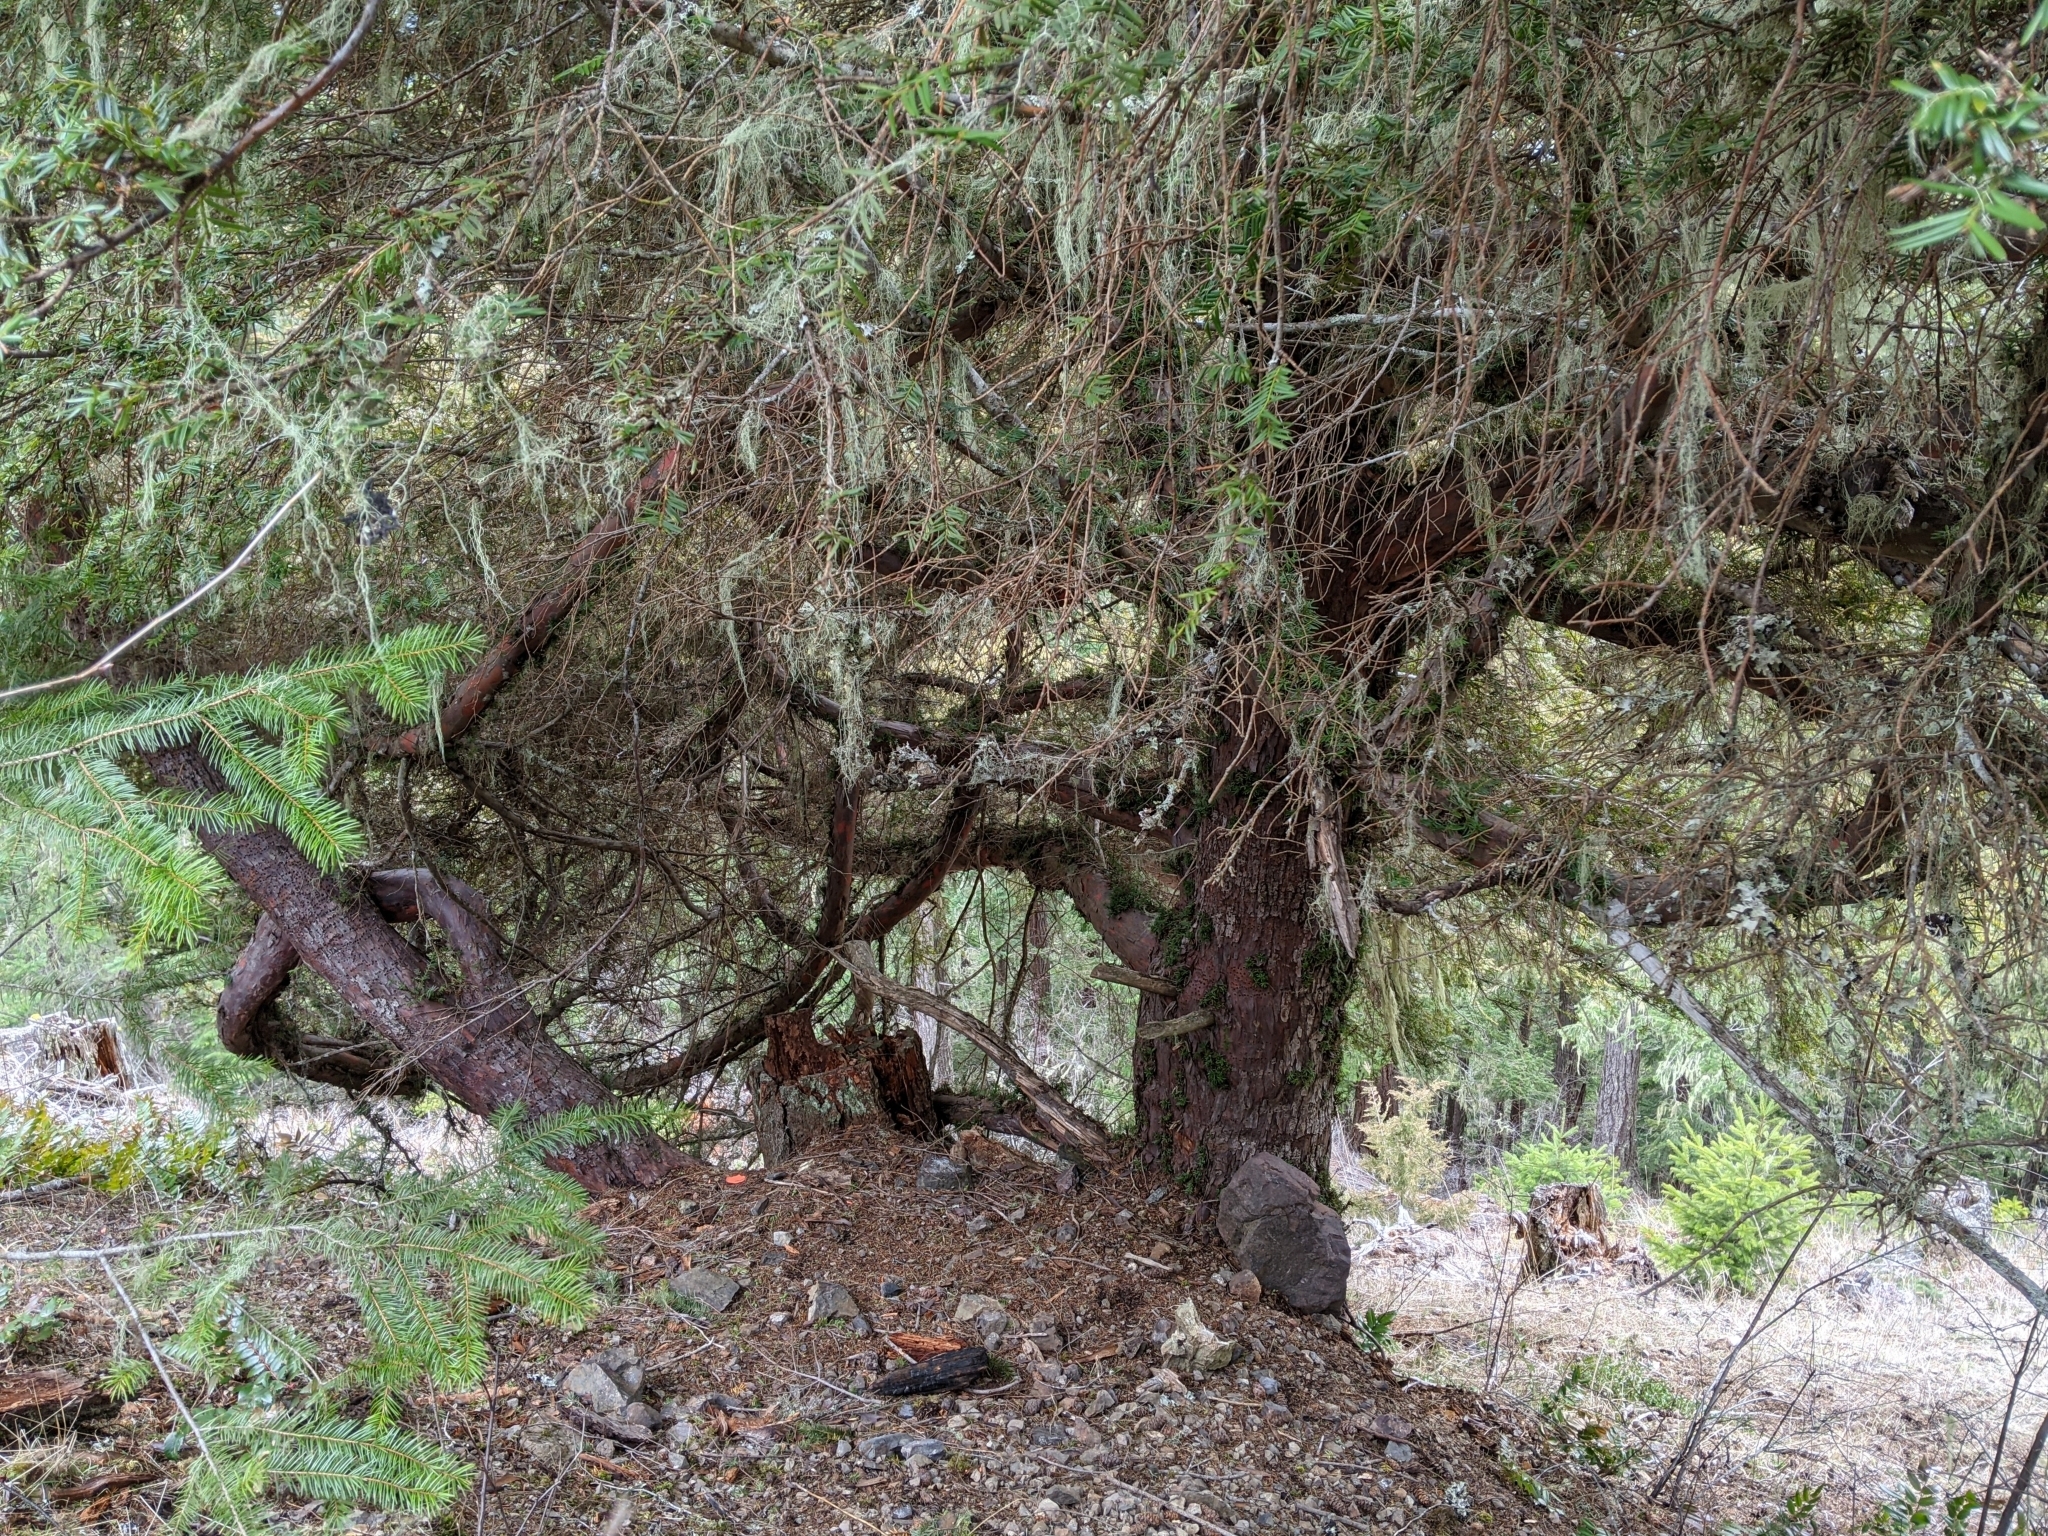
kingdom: Plantae
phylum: Tracheophyta
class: Pinopsida
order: Pinales
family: Taxaceae
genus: Taxus
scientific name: Taxus brevifolia
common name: Pacific yew
